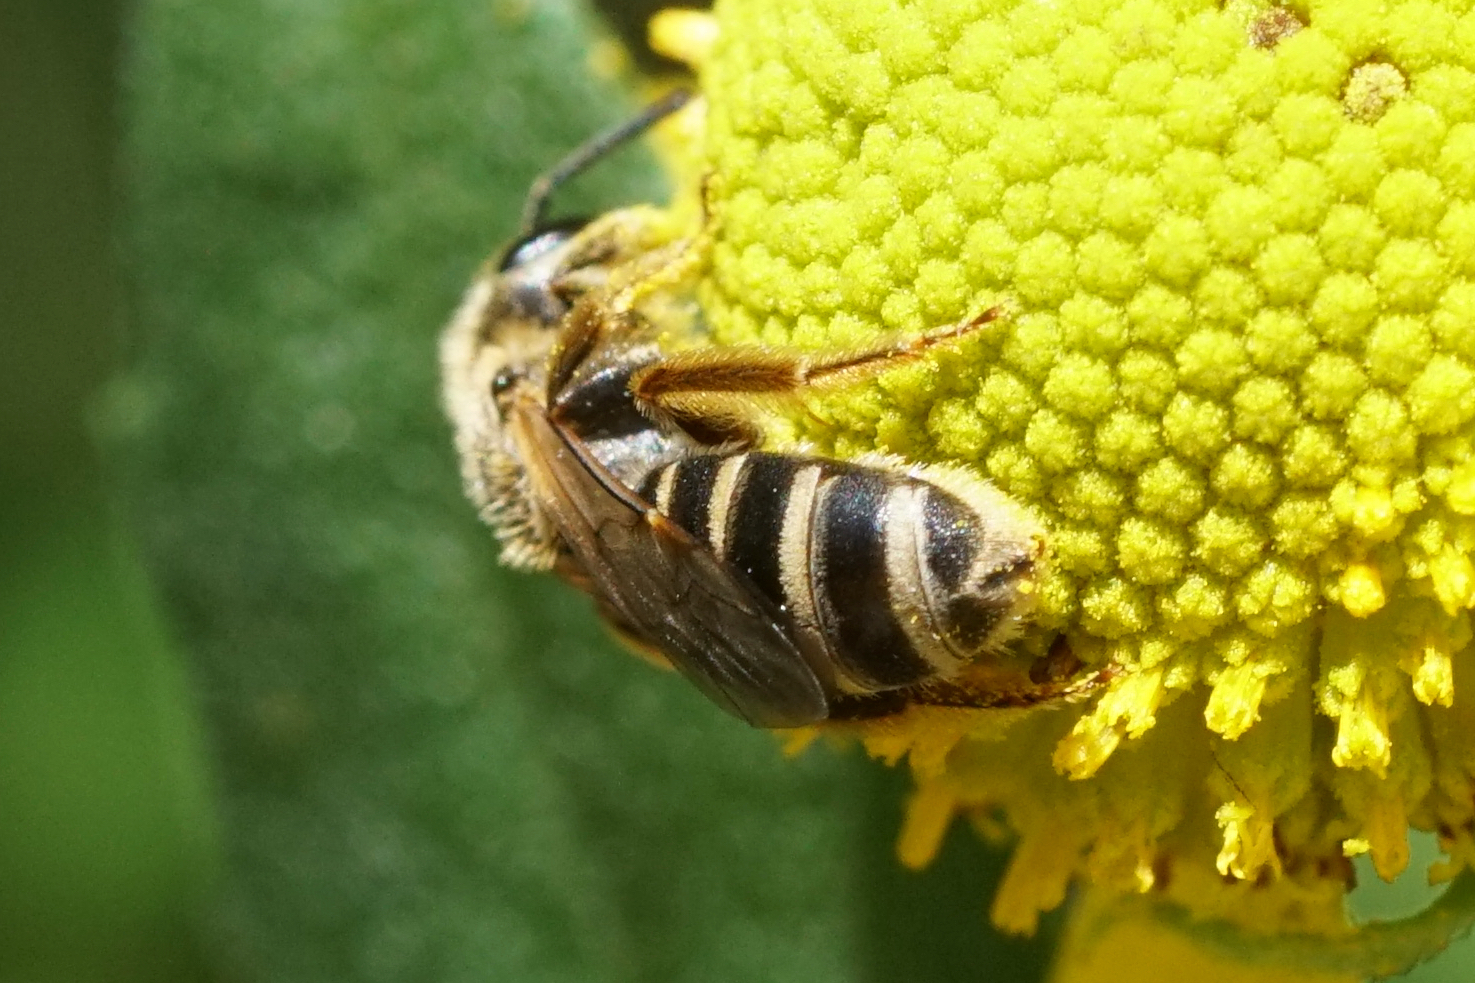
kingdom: Animalia
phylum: Arthropoda
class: Insecta
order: Hymenoptera
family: Halictidae
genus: Halictus
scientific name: Halictus ligatus
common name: Ligated furrow bee
